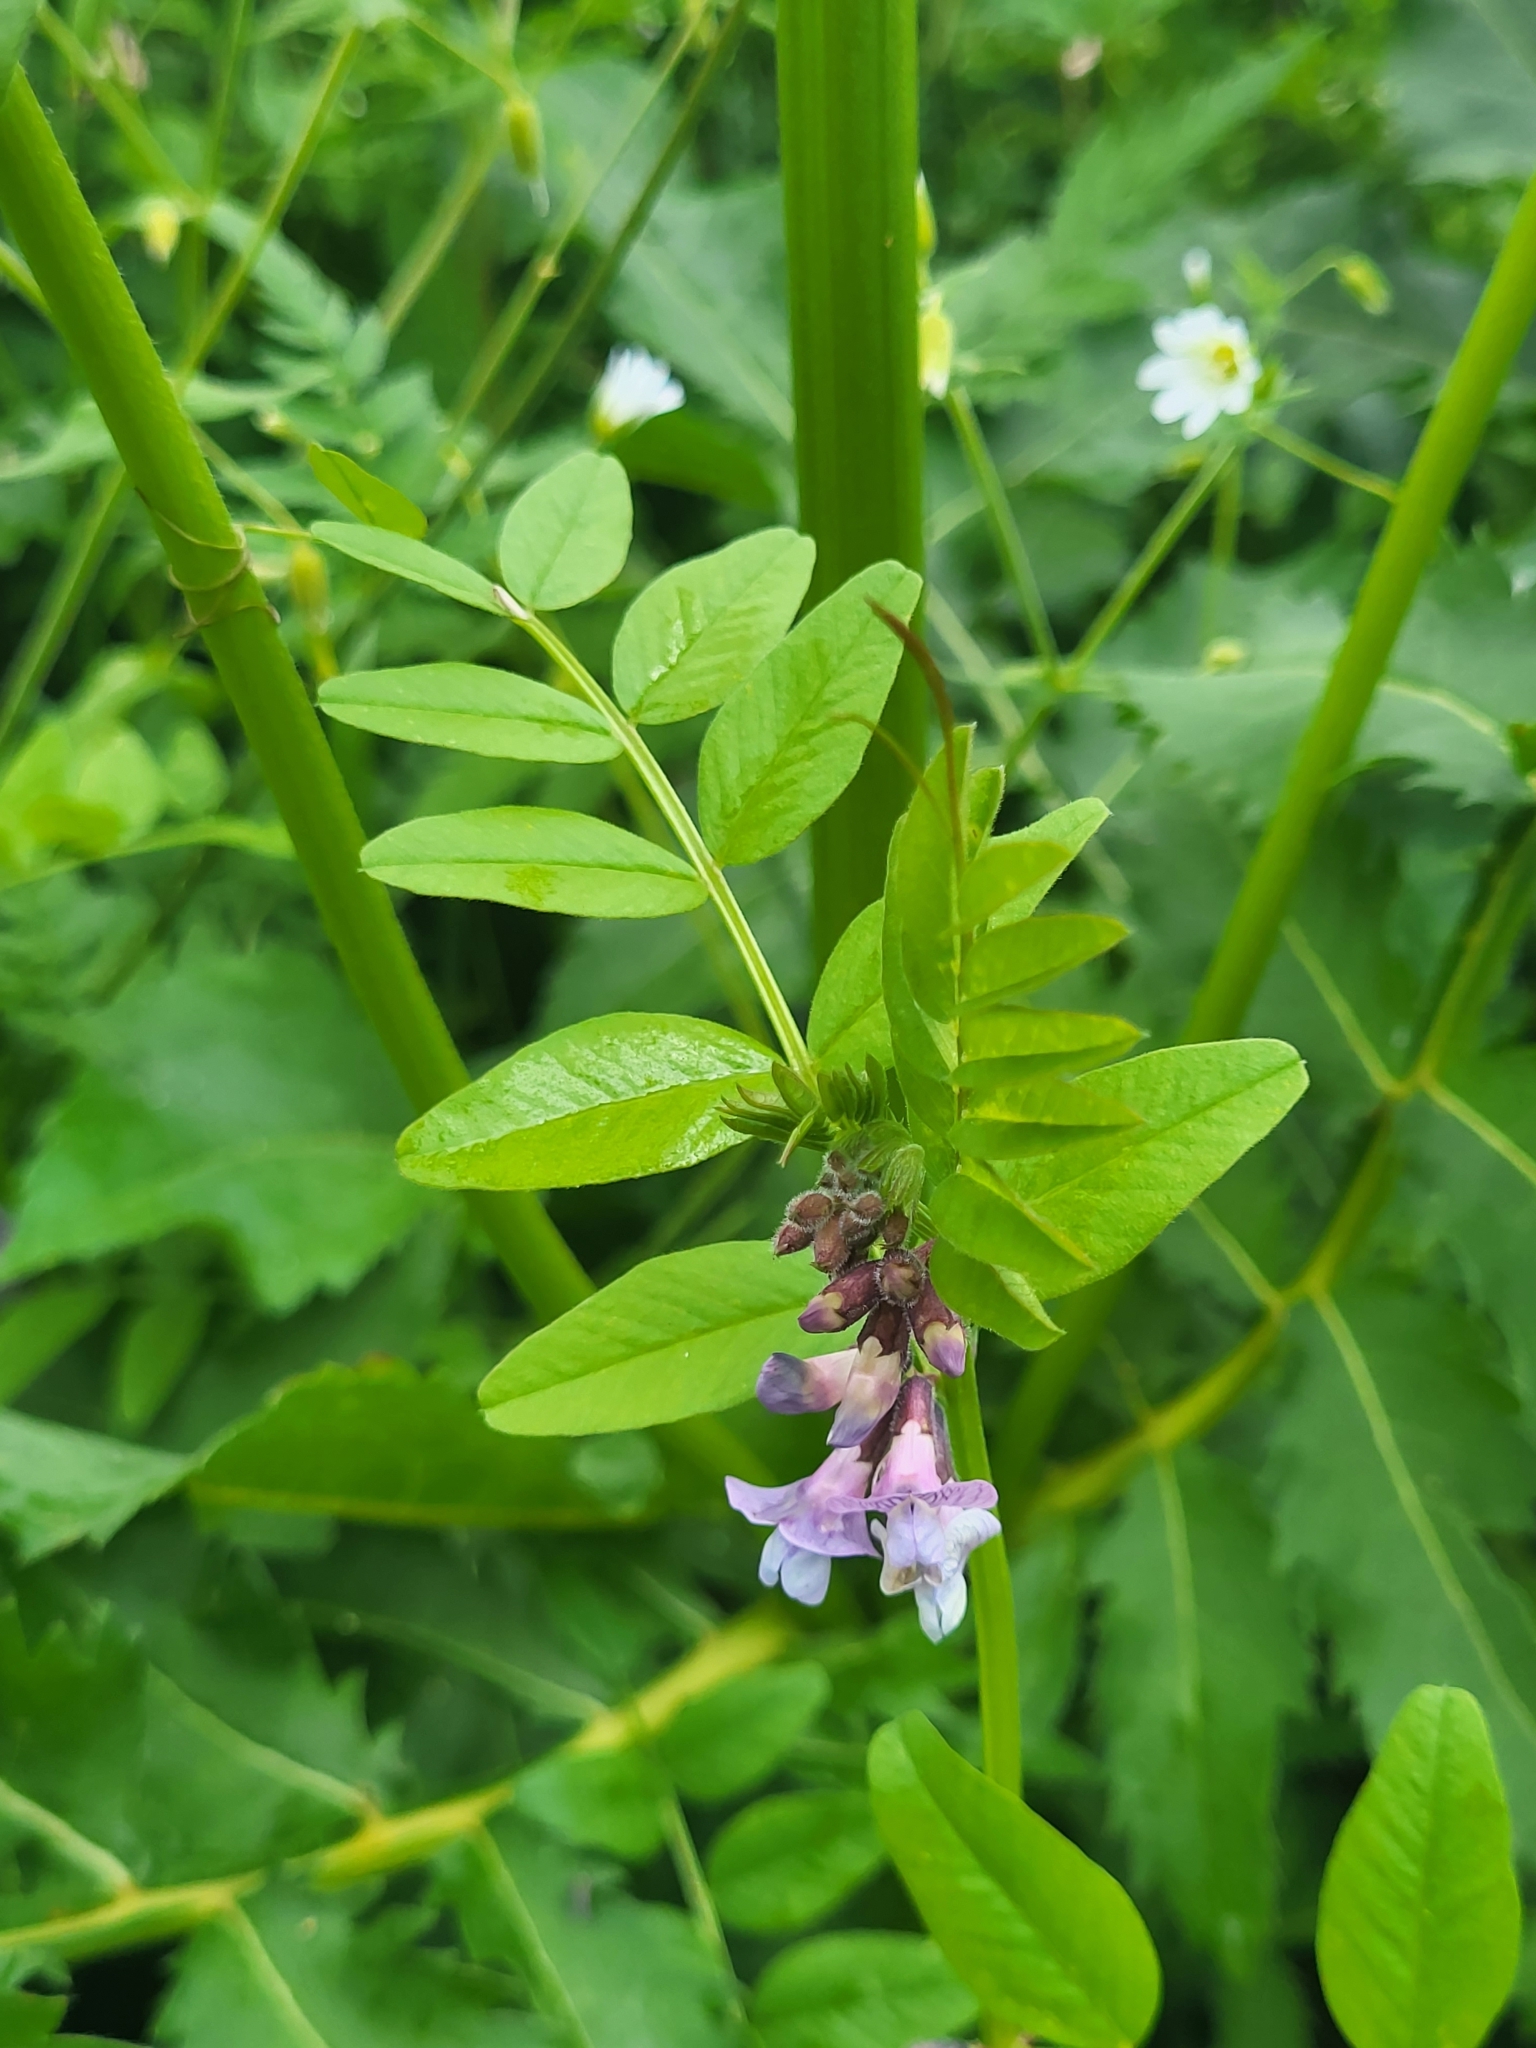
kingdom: Plantae
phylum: Tracheophyta
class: Magnoliopsida
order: Fabales
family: Fabaceae
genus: Vicia
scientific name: Vicia sepium
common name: Bush vetch
